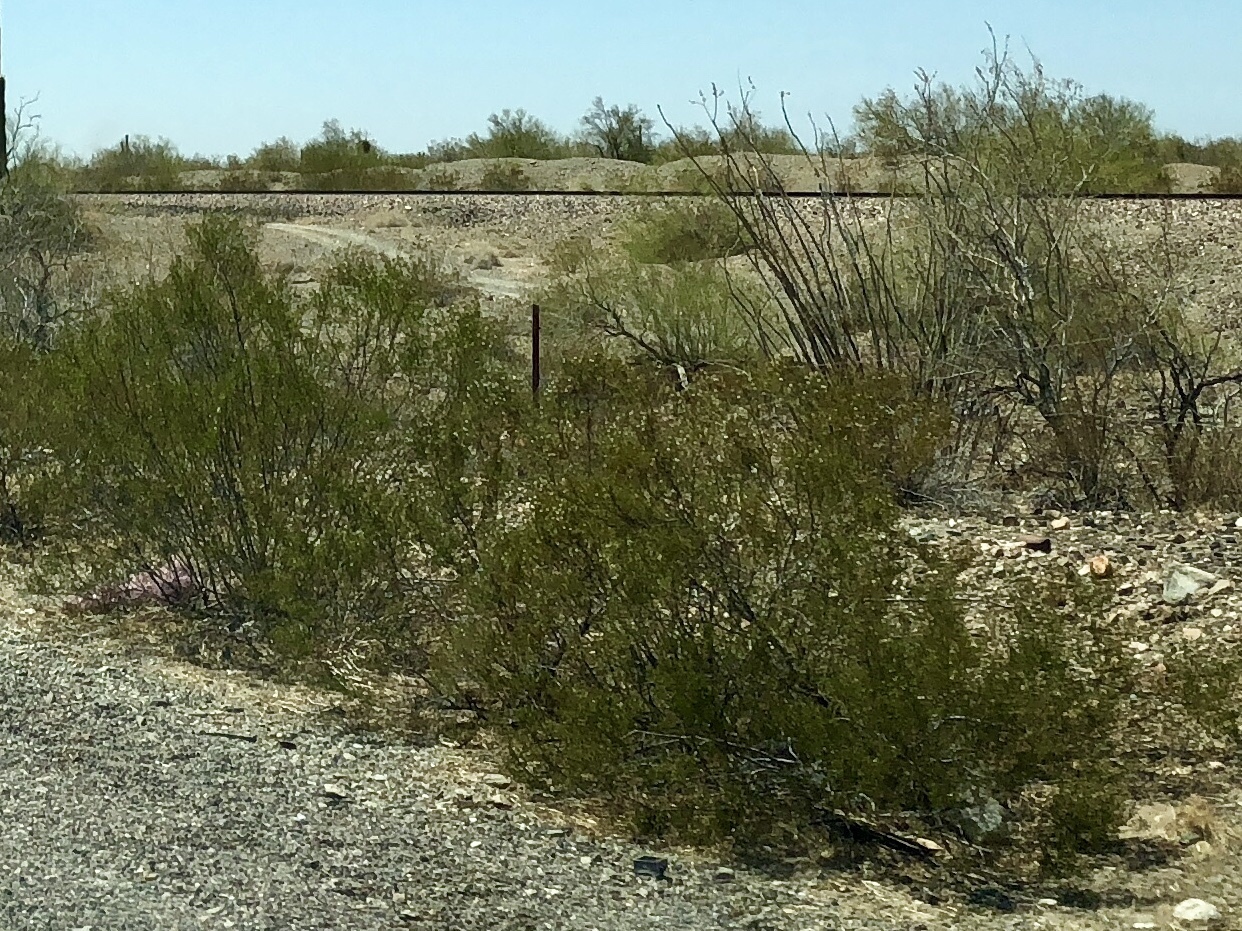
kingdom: Plantae
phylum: Tracheophyta
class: Magnoliopsida
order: Zygophyllales
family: Zygophyllaceae
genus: Larrea
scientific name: Larrea tridentata
